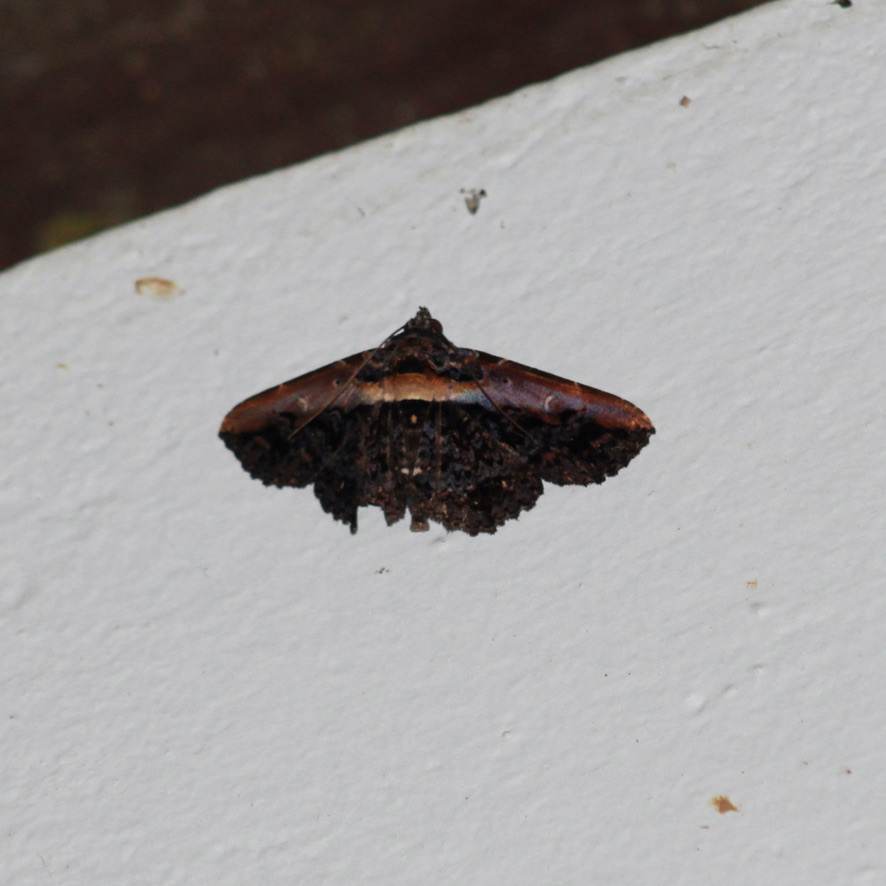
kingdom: Animalia
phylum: Arthropoda
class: Insecta
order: Lepidoptera
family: Erebidae
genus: Selenisa
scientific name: Selenisa lanipes
